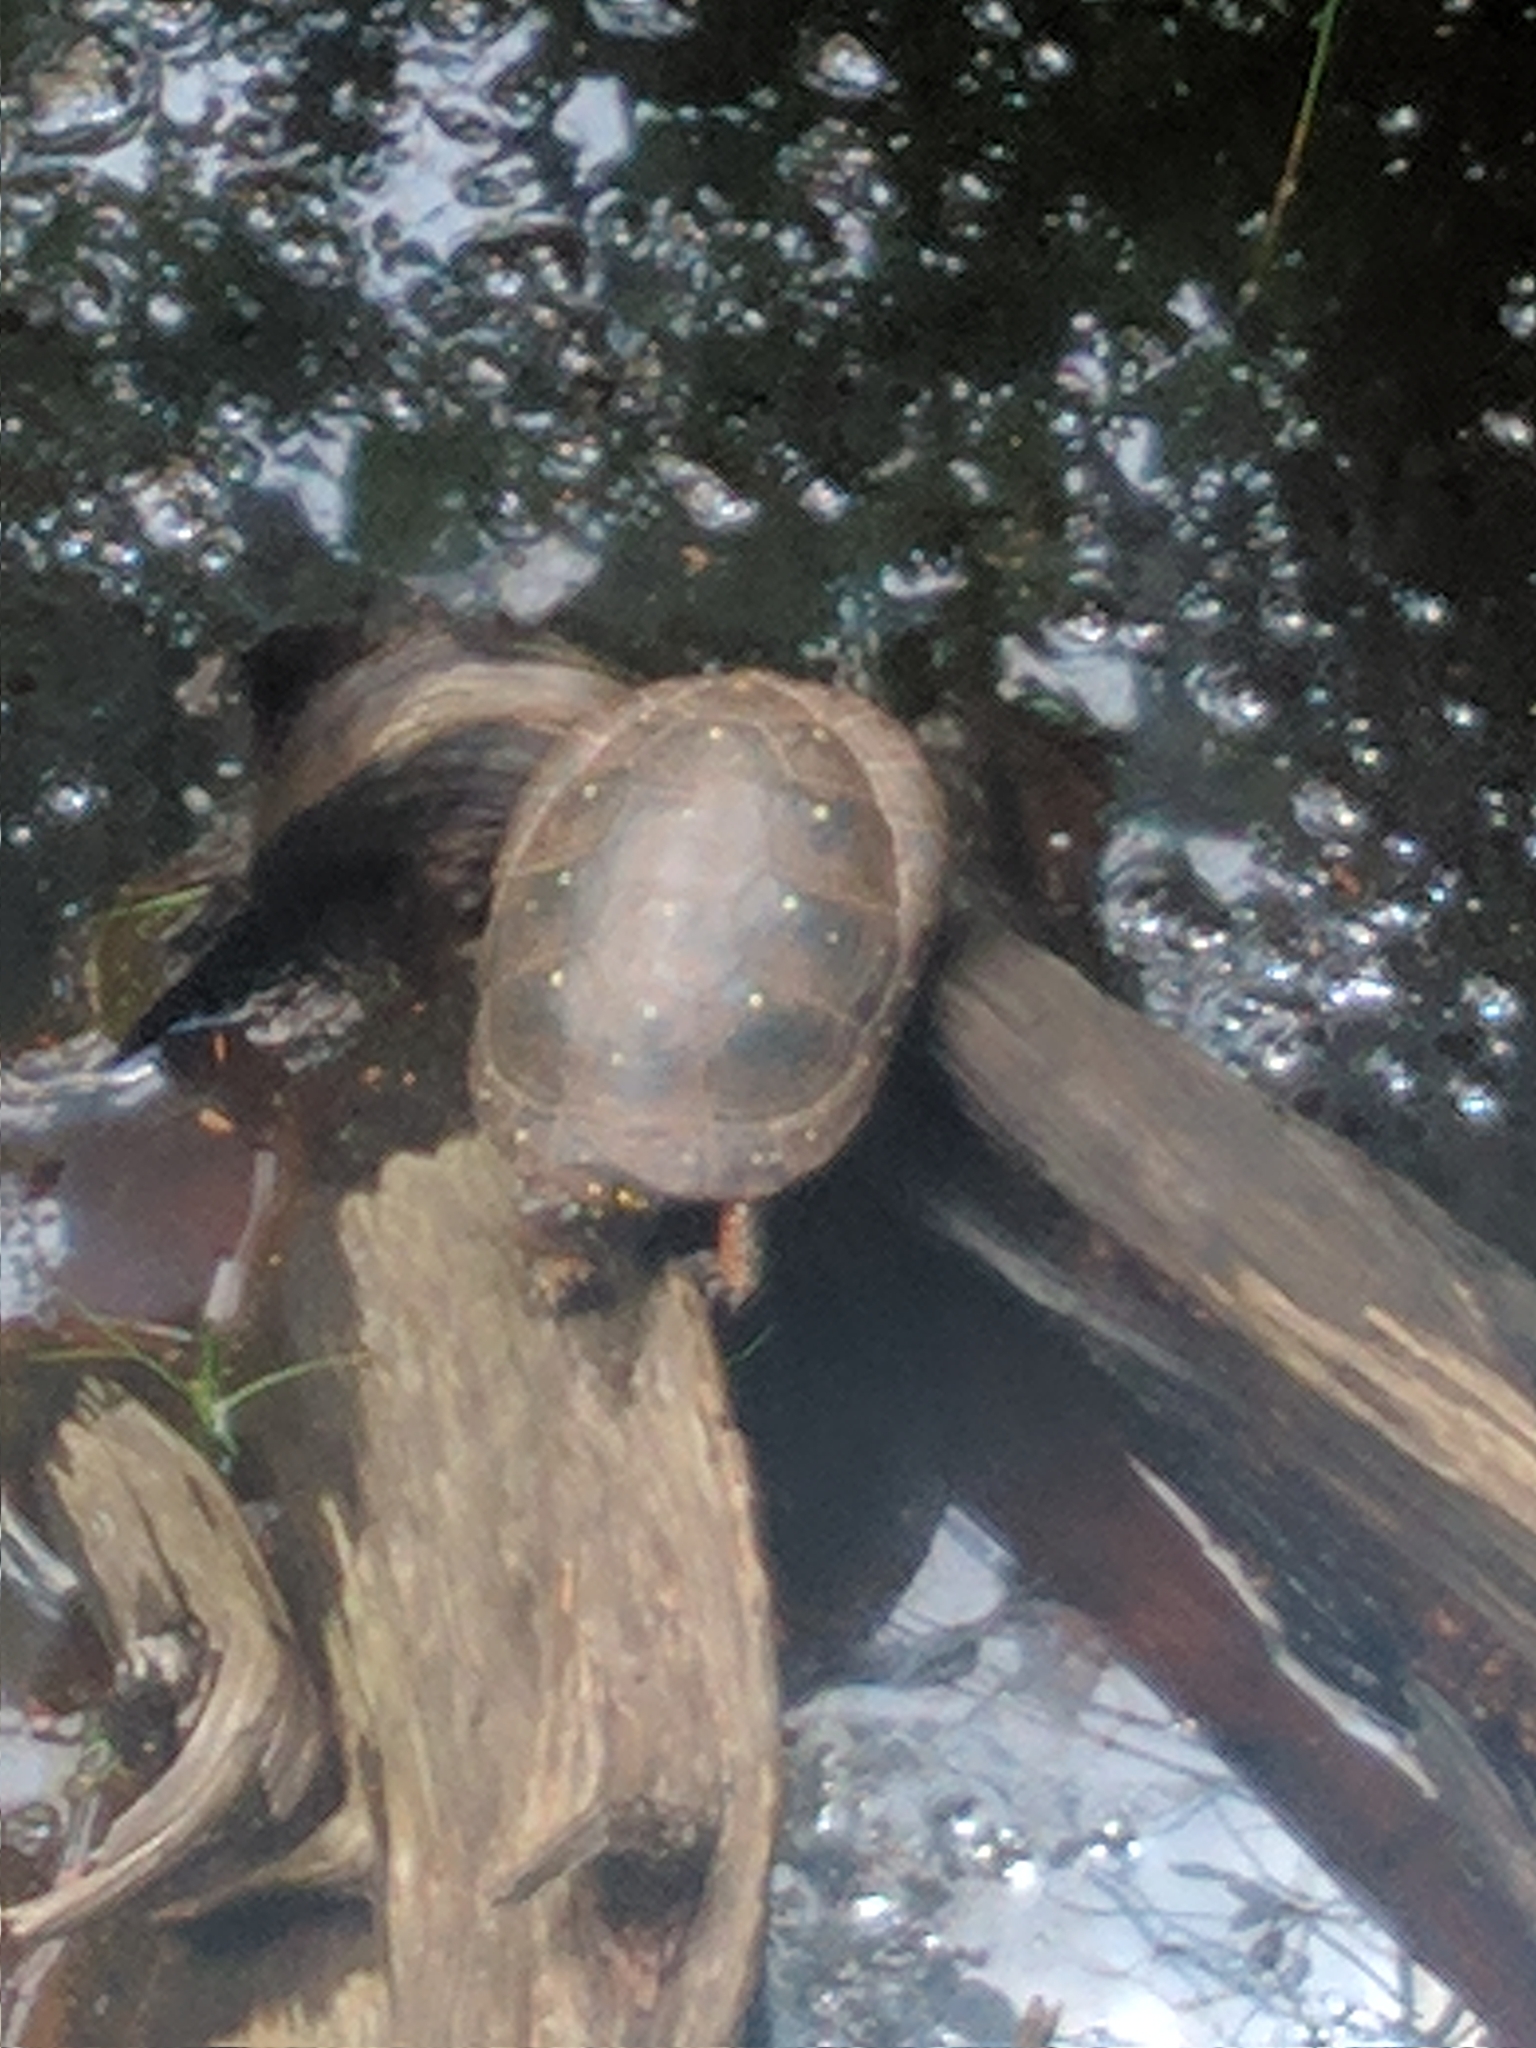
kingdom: Animalia
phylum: Chordata
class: Testudines
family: Emydidae
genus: Clemmys
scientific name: Clemmys guttata
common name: Spotted turtle
